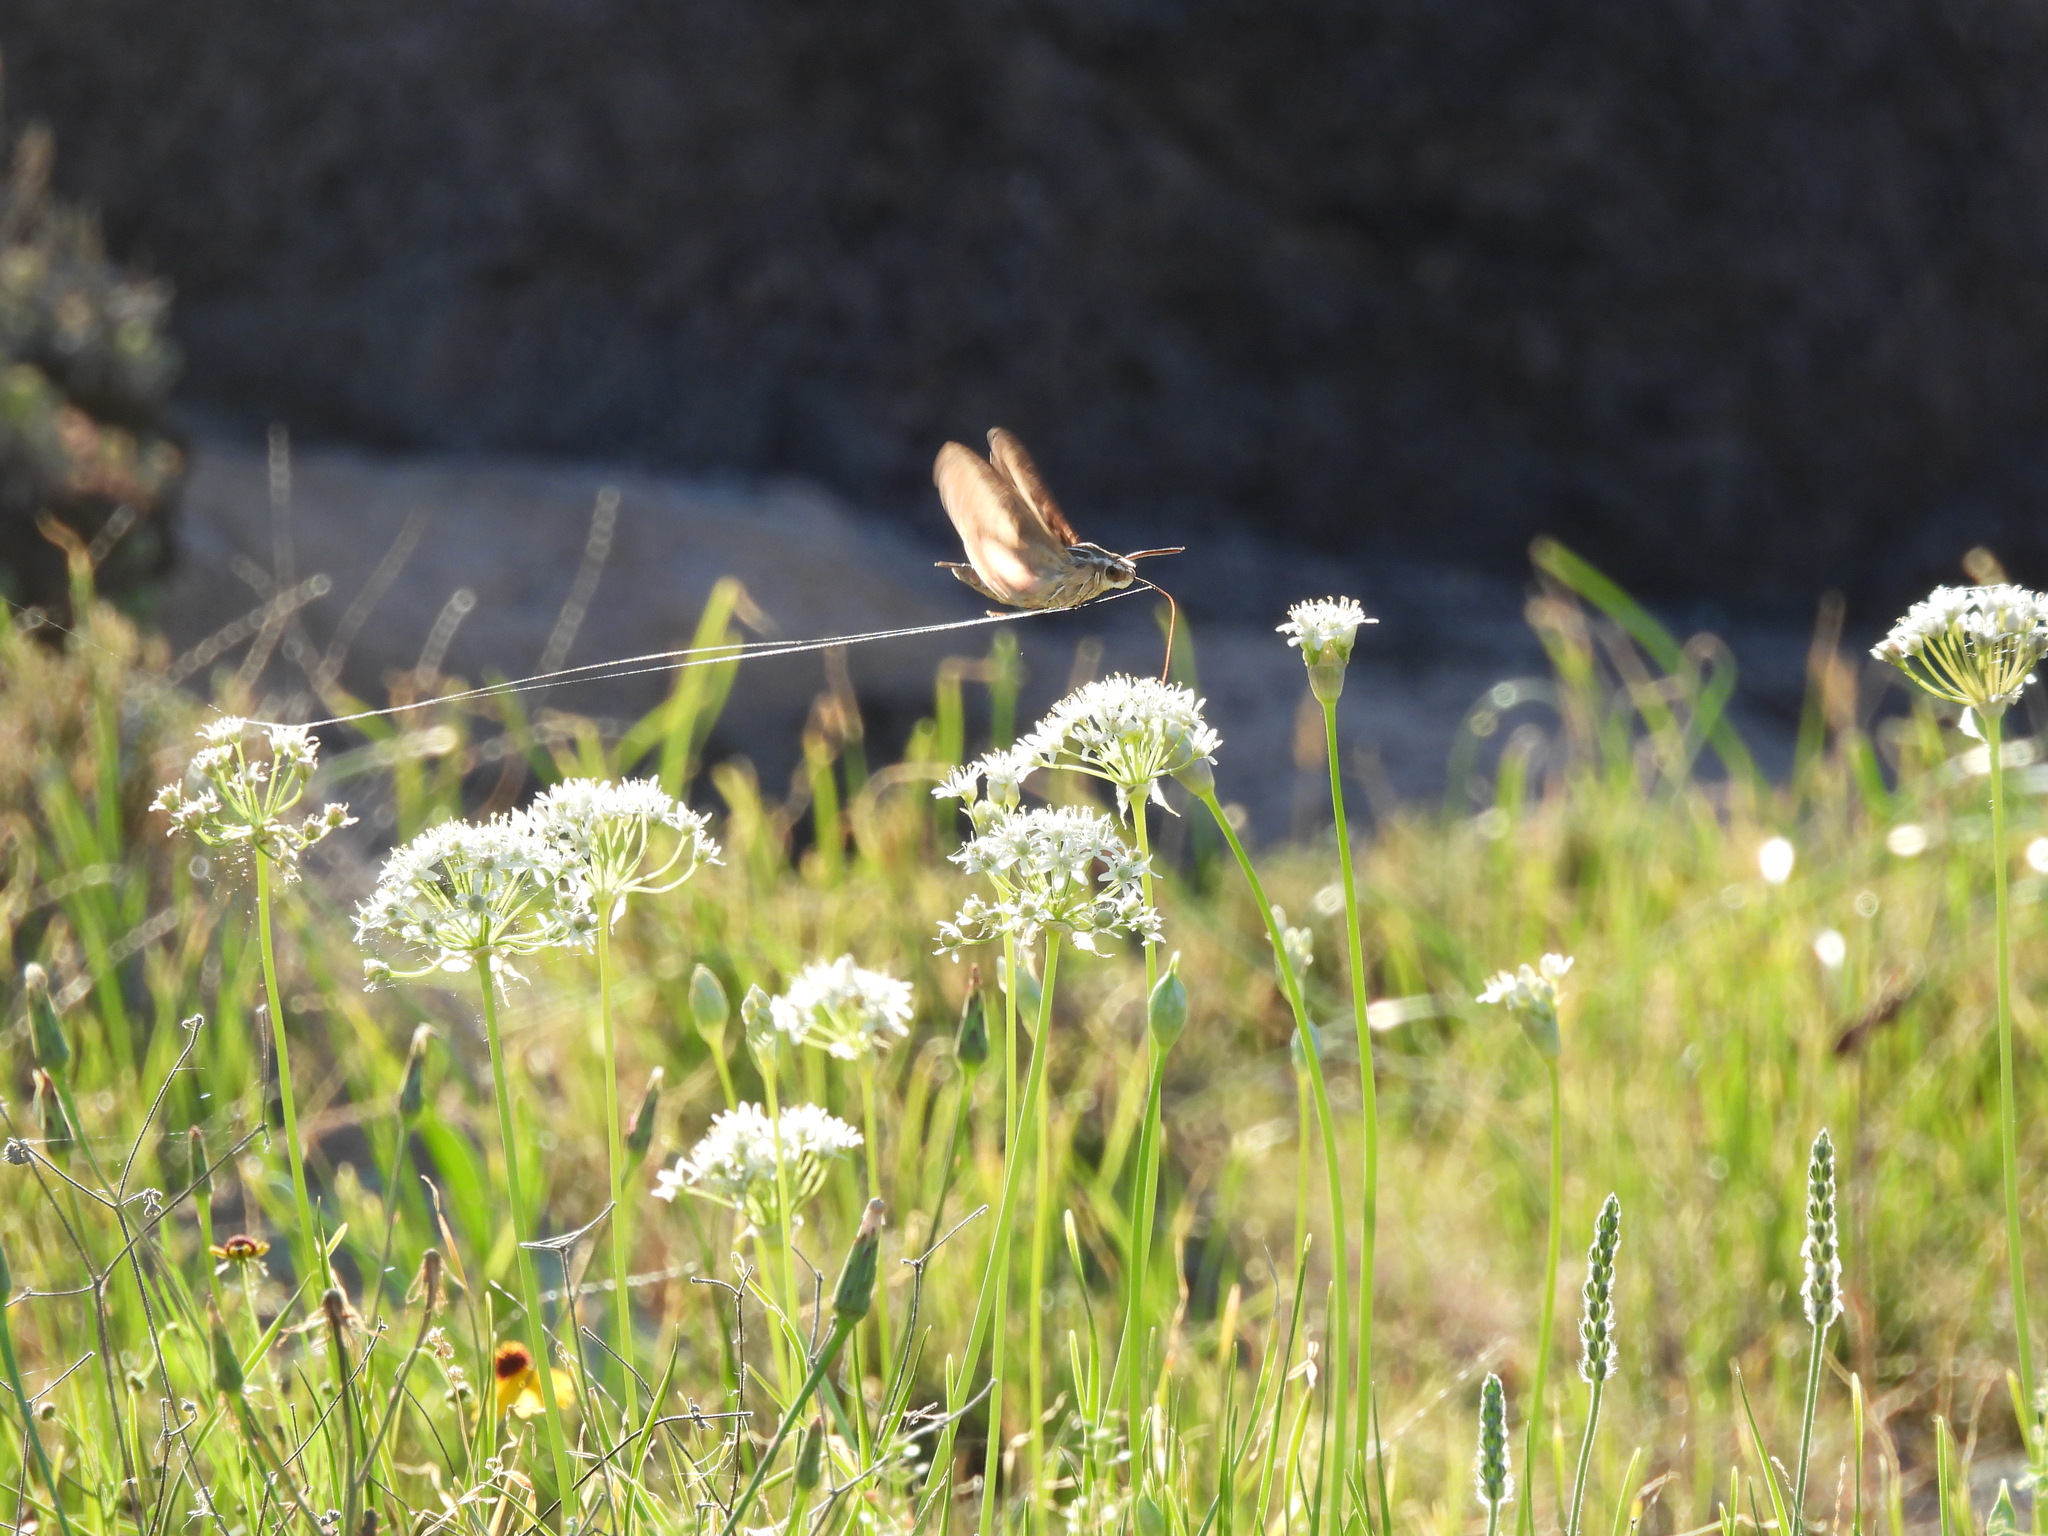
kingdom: Animalia
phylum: Arthropoda
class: Insecta
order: Lepidoptera
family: Sphingidae
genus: Hyles
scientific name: Hyles lineata
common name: White-lined sphinx
